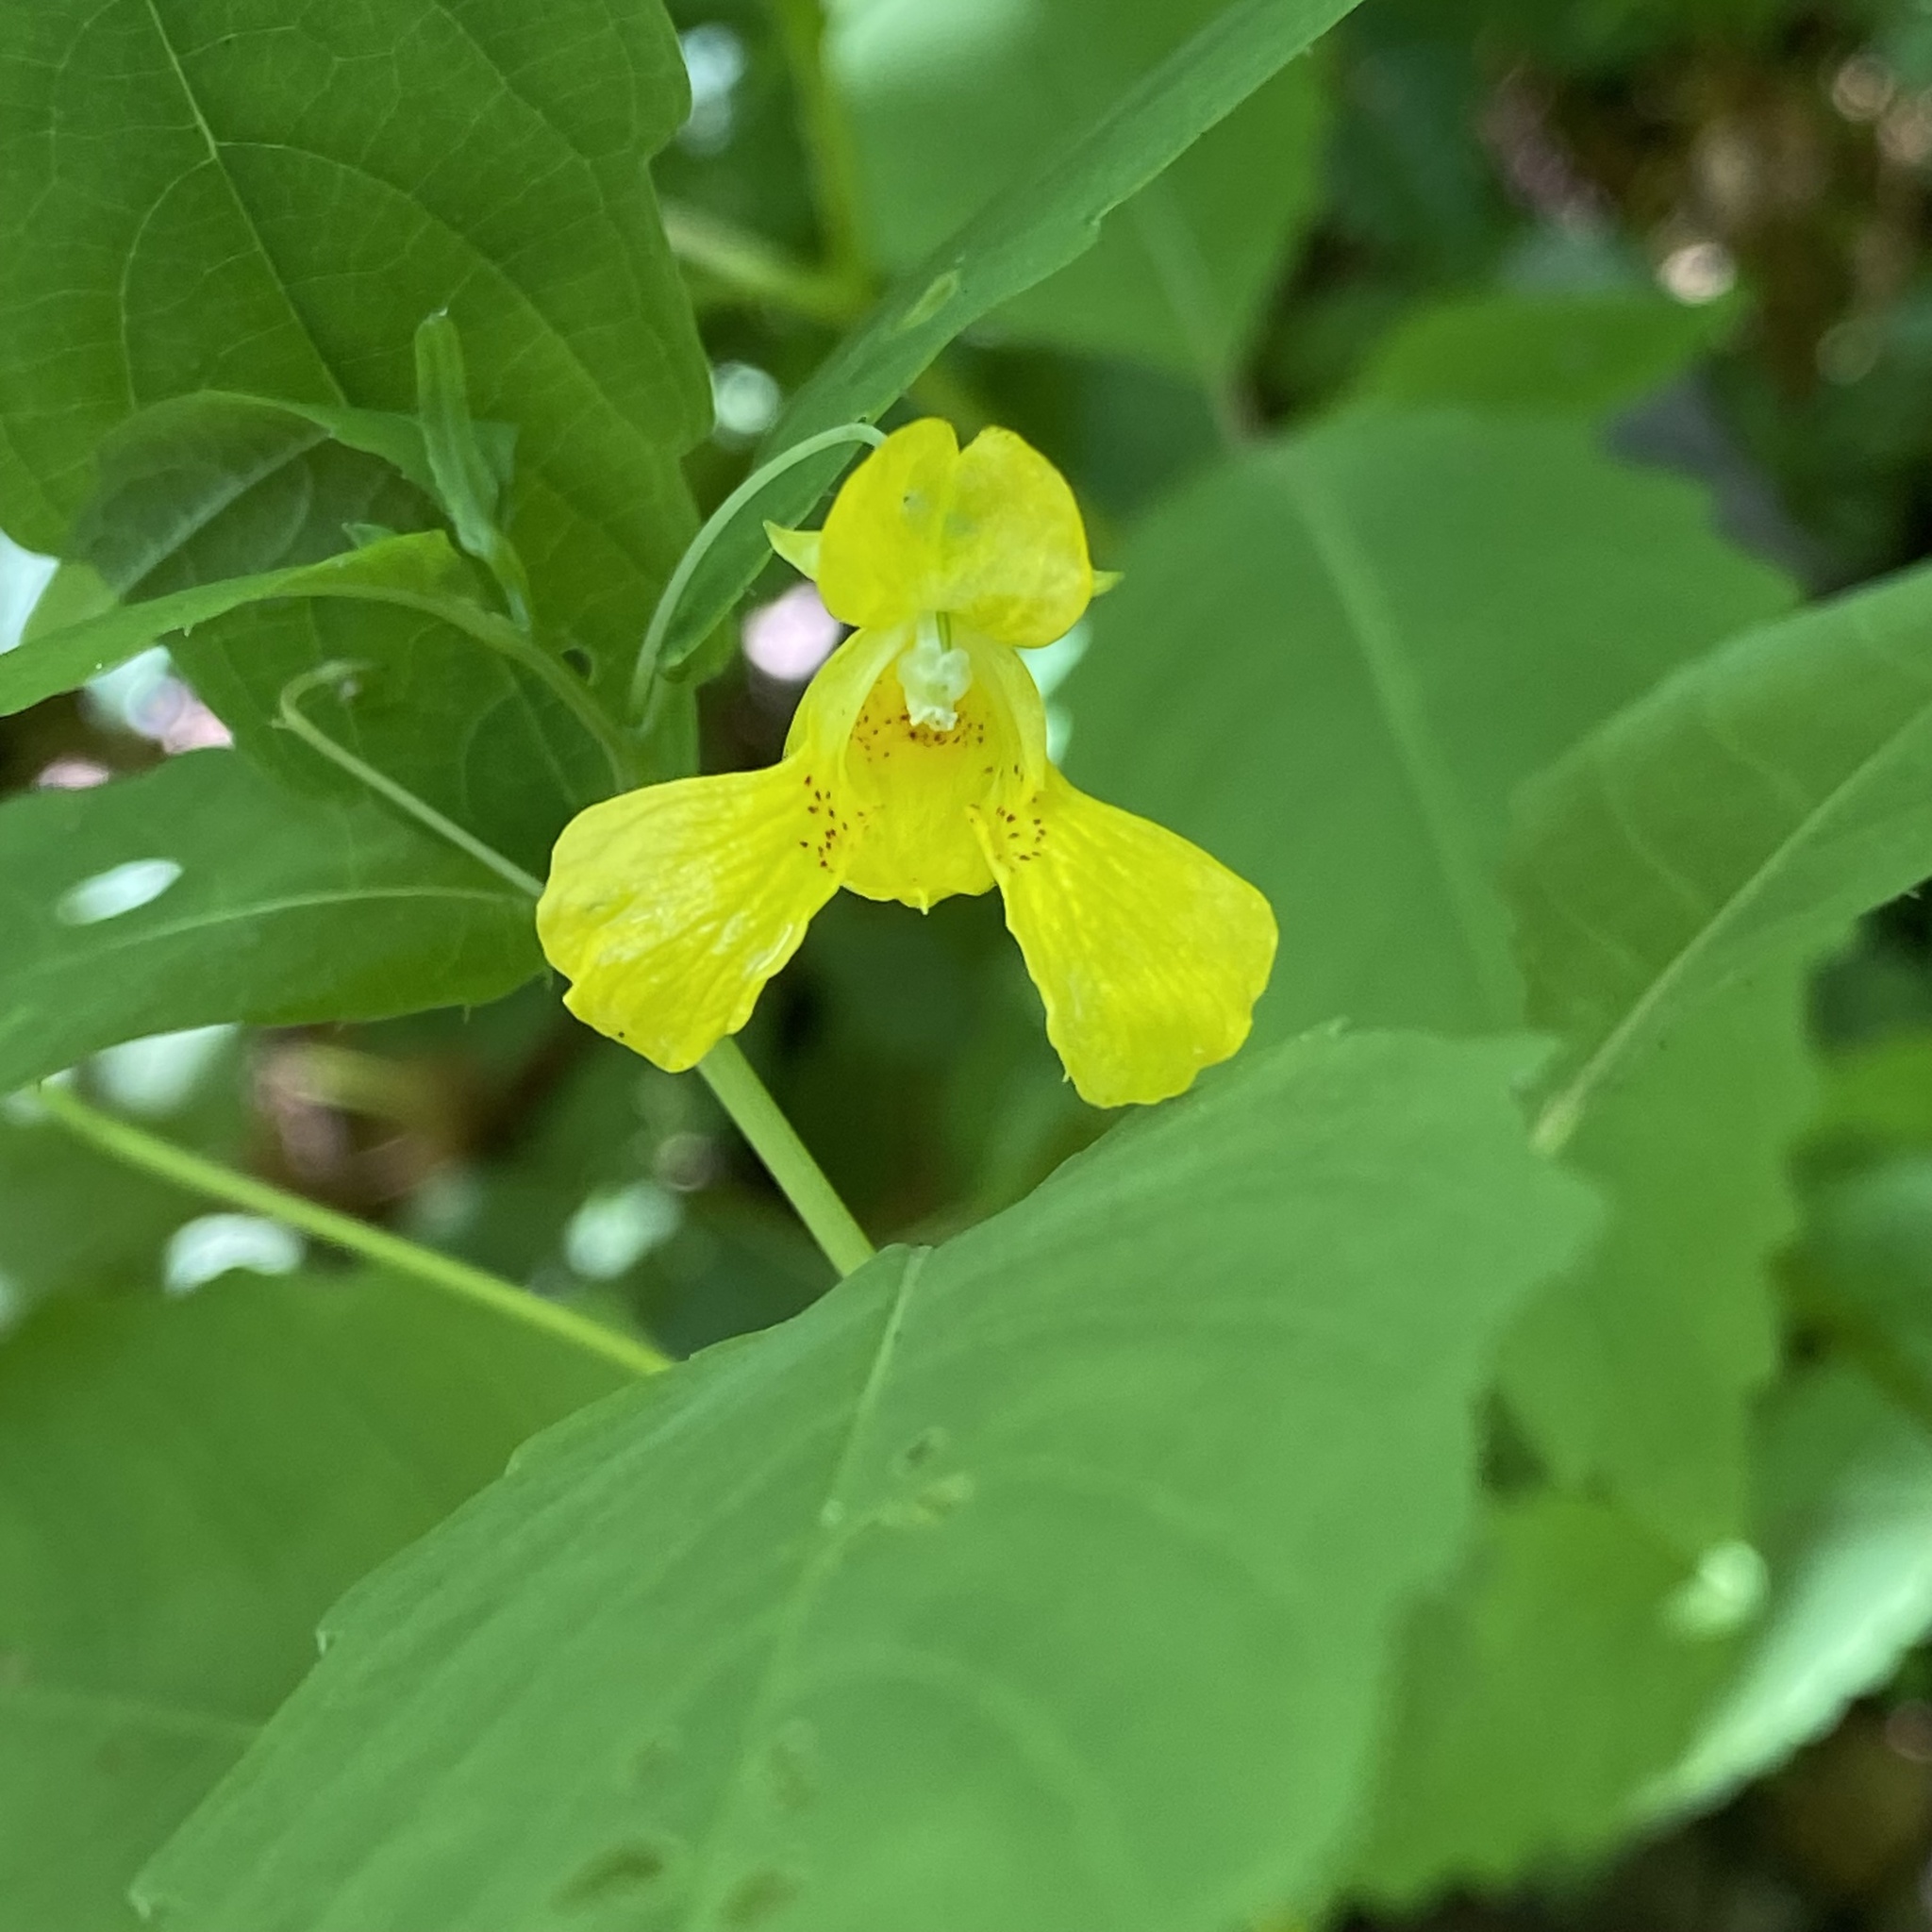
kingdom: Plantae
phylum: Tracheophyta
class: Magnoliopsida
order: Ericales
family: Balsaminaceae
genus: Impatiens
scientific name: Impatiens pallida
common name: Pale snapweed
